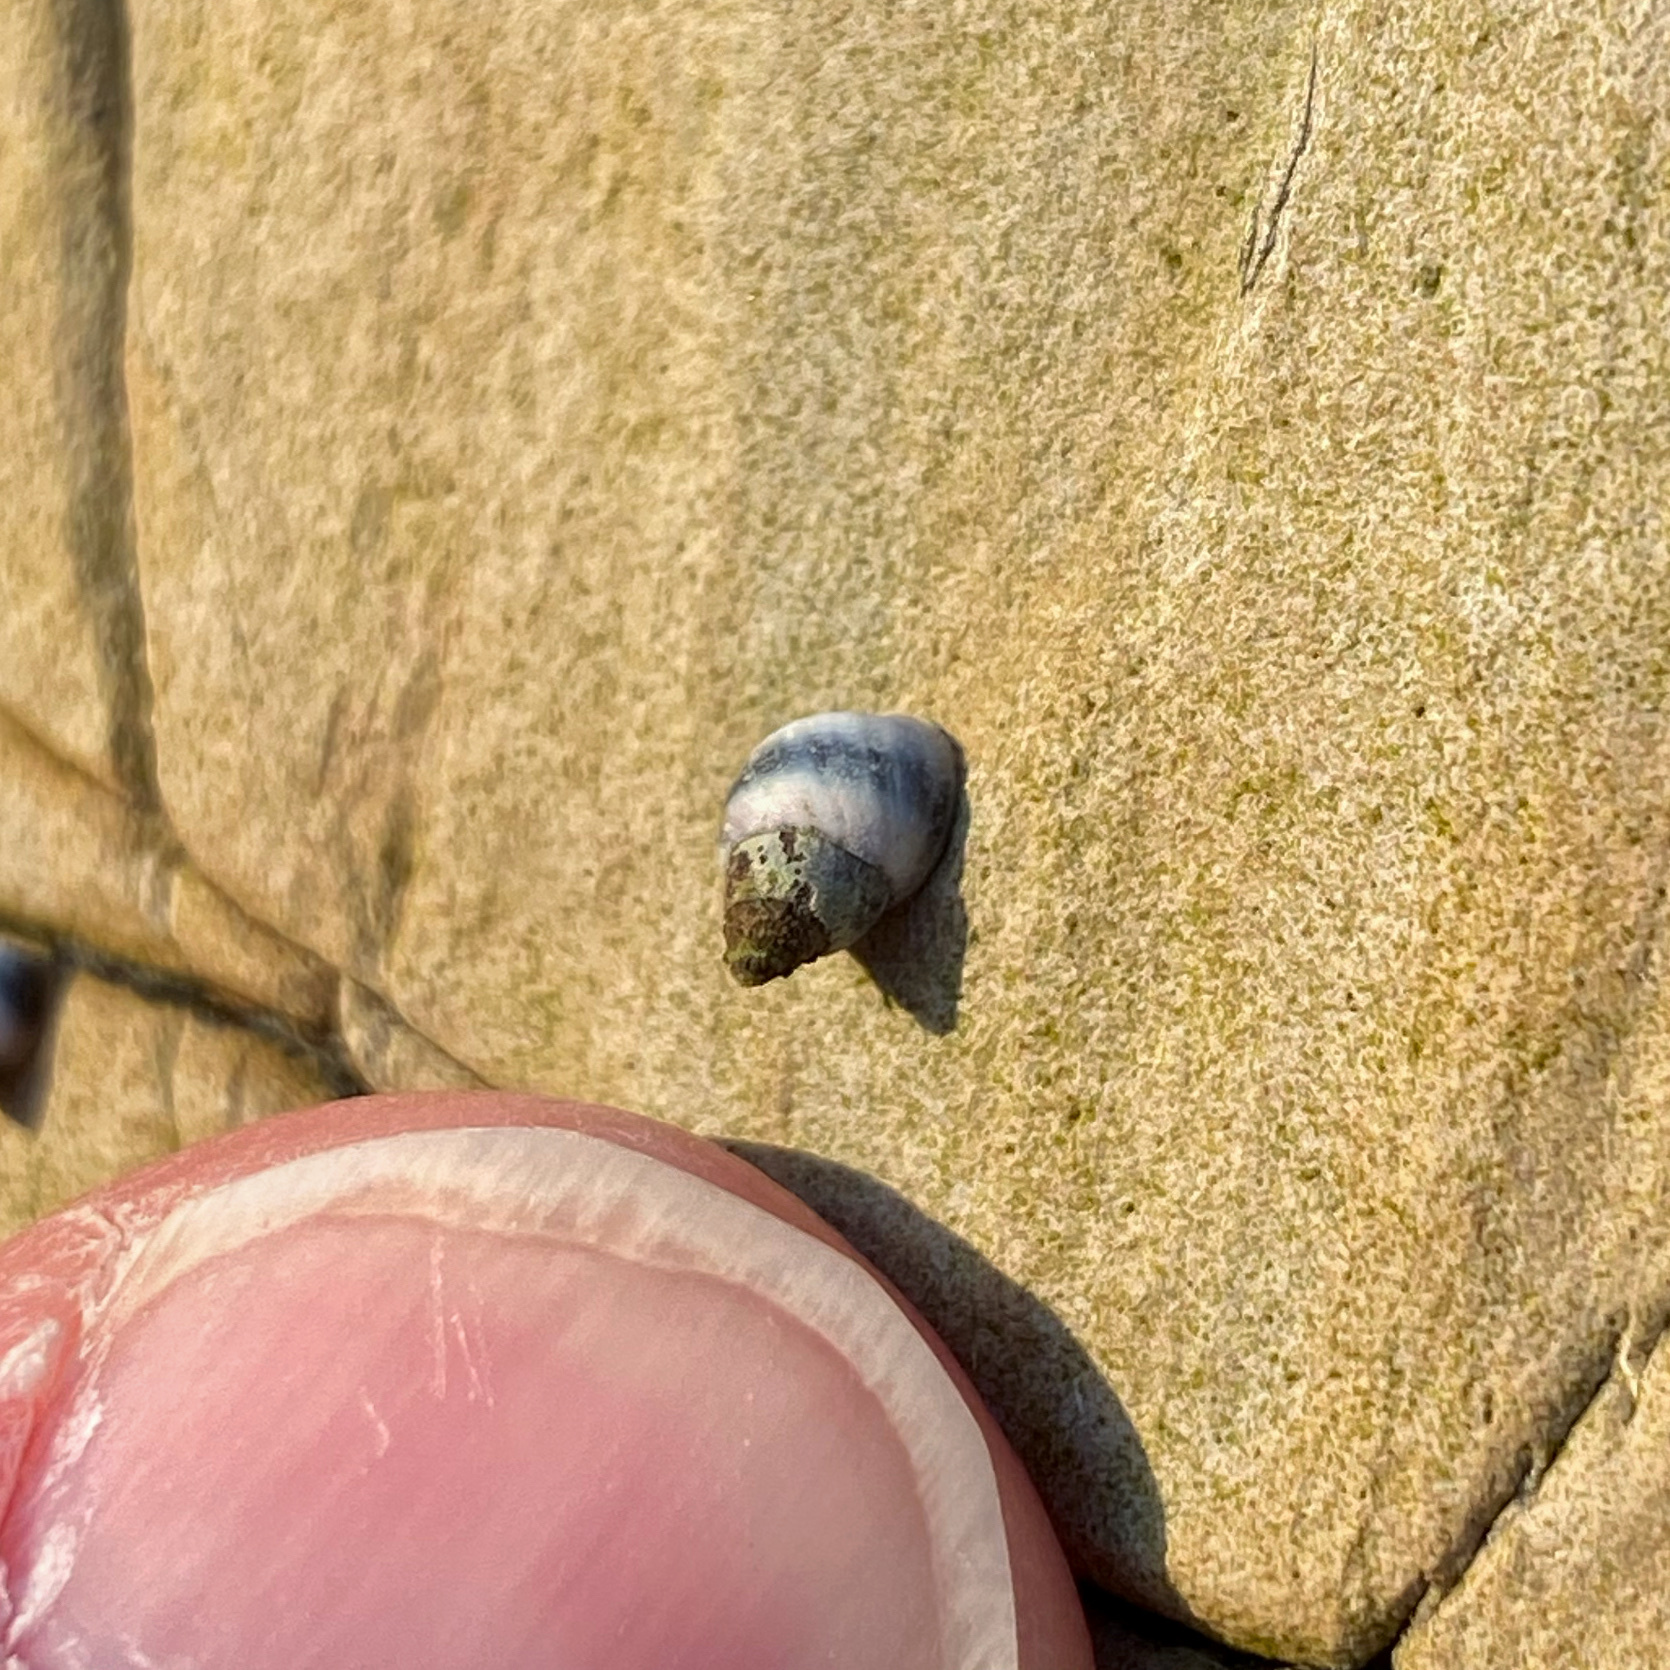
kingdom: Animalia
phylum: Mollusca
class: Gastropoda
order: Littorinimorpha
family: Littorinidae
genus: Austrolittorina
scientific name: Austrolittorina antipodum
